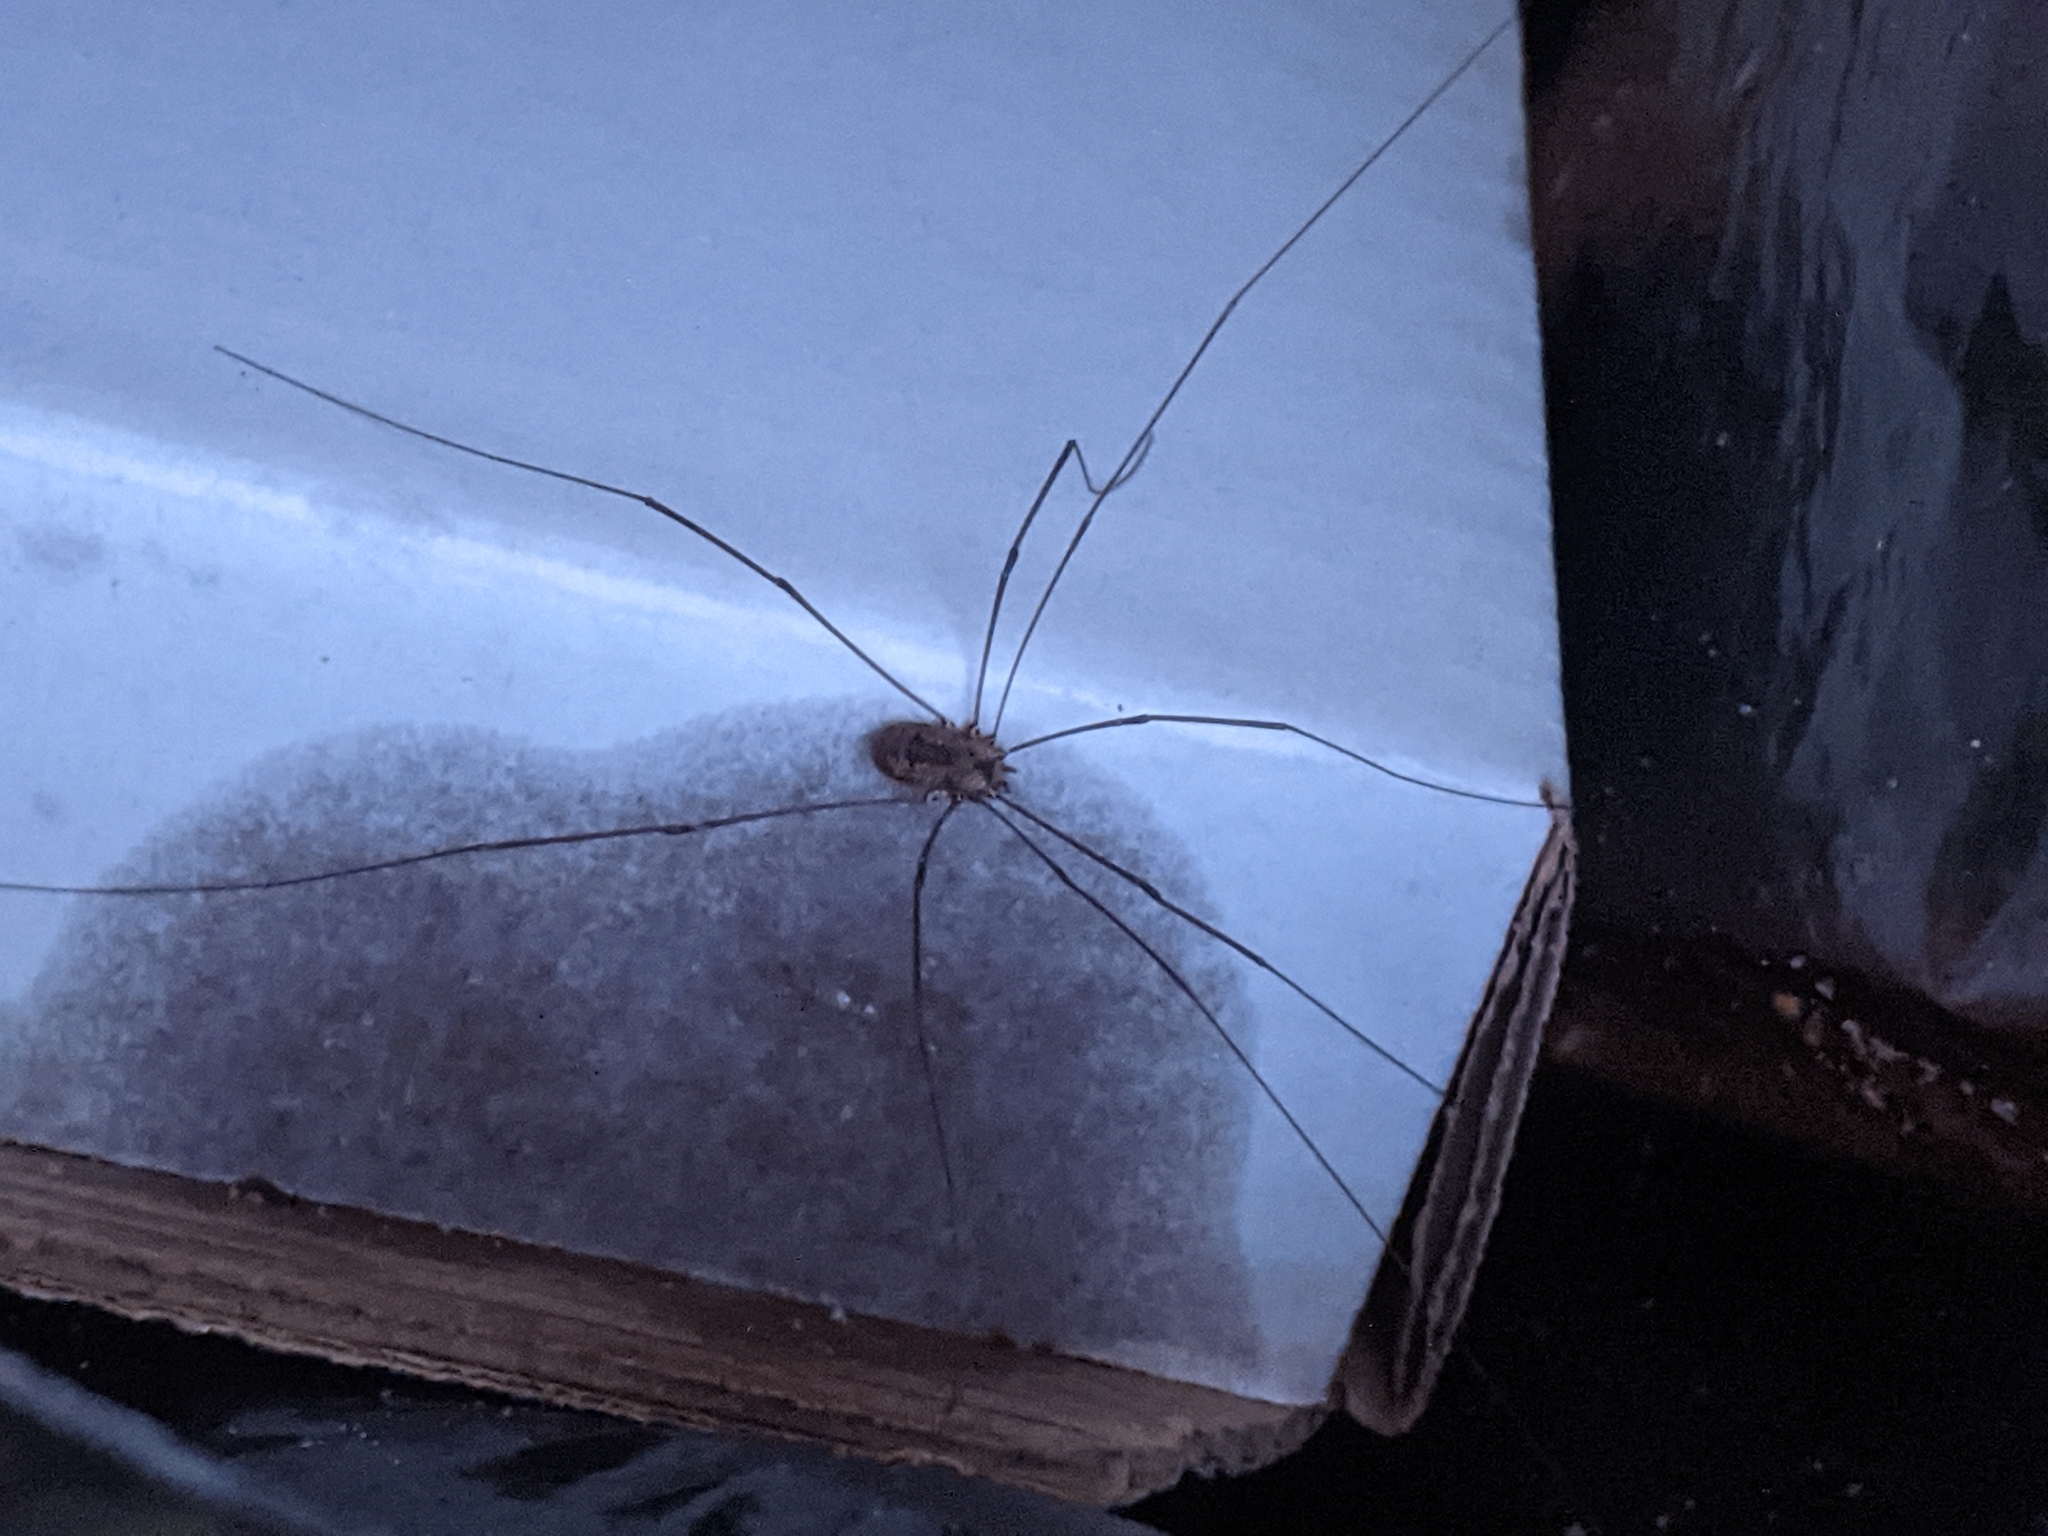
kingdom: Animalia
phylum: Arthropoda
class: Arachnida
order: Opiliones
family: Sclerosomatidae
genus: Leiobunum
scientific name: Leiobunum rotundum
